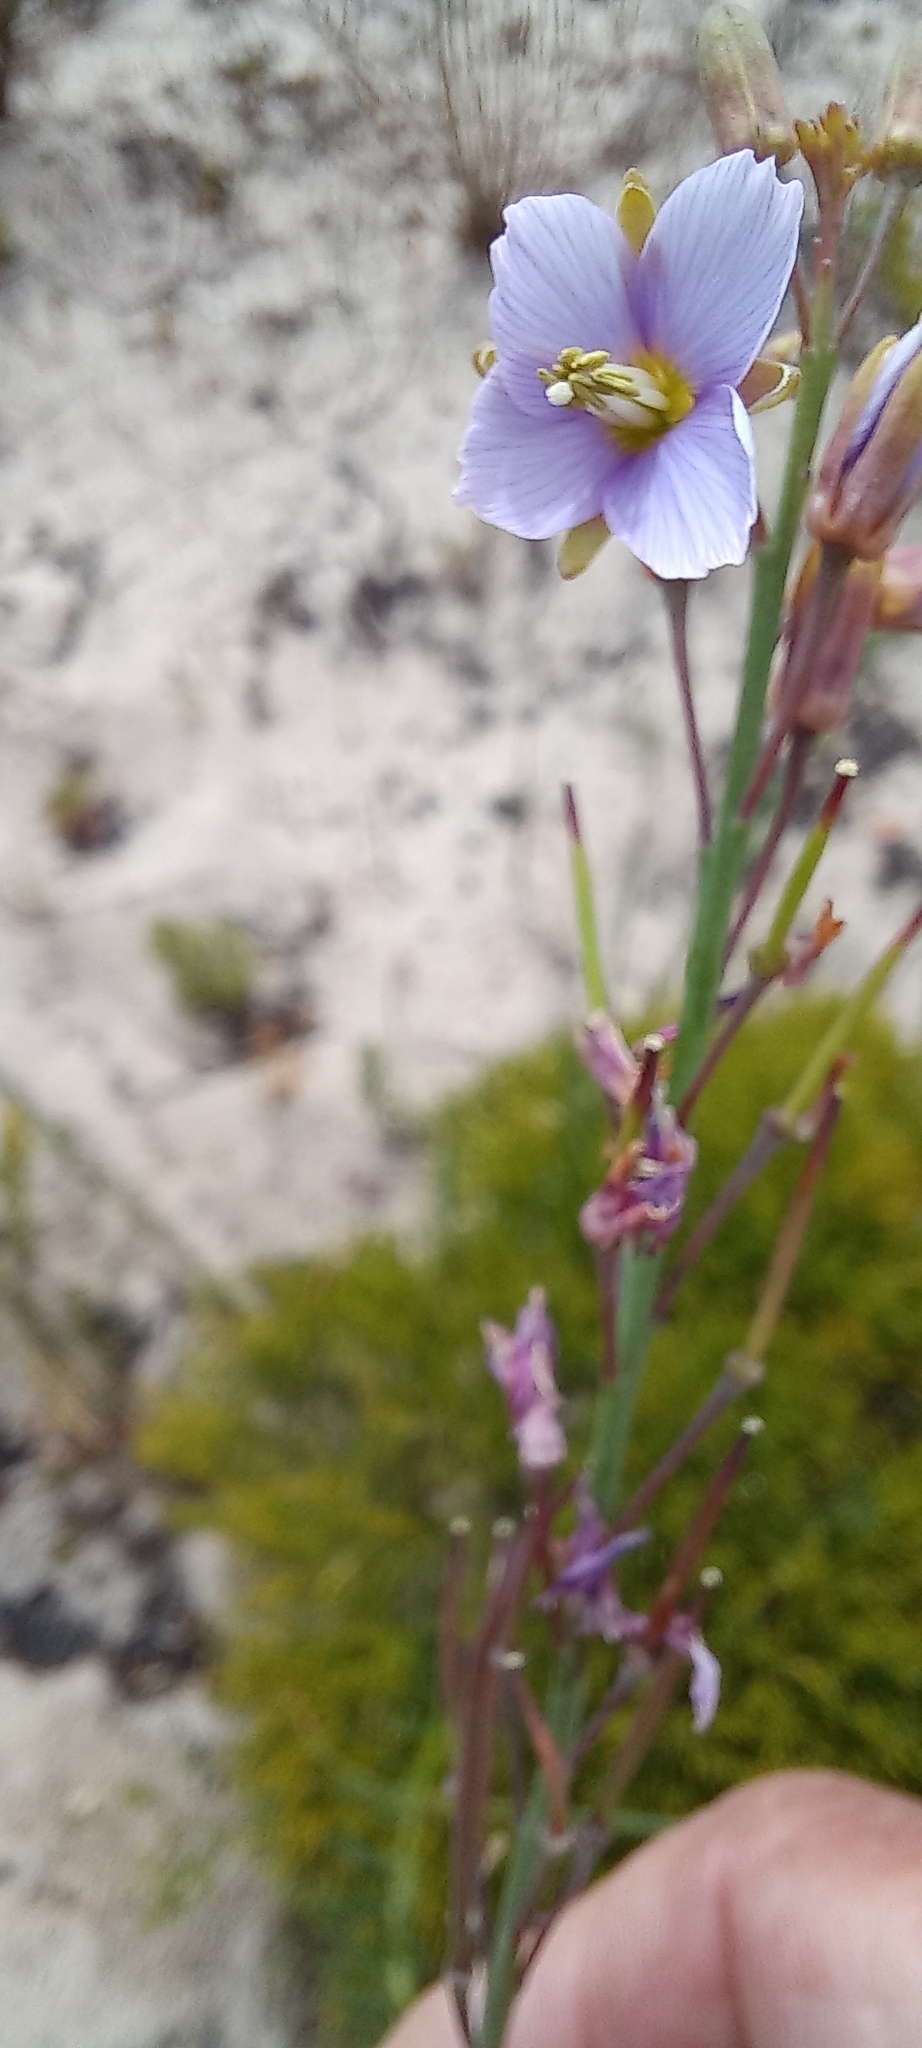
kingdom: Plantae
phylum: Tracheophyta
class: Magnoliopsida
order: Brassicales
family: Brassicaceae
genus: Heliophila
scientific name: Heliophila linearis
